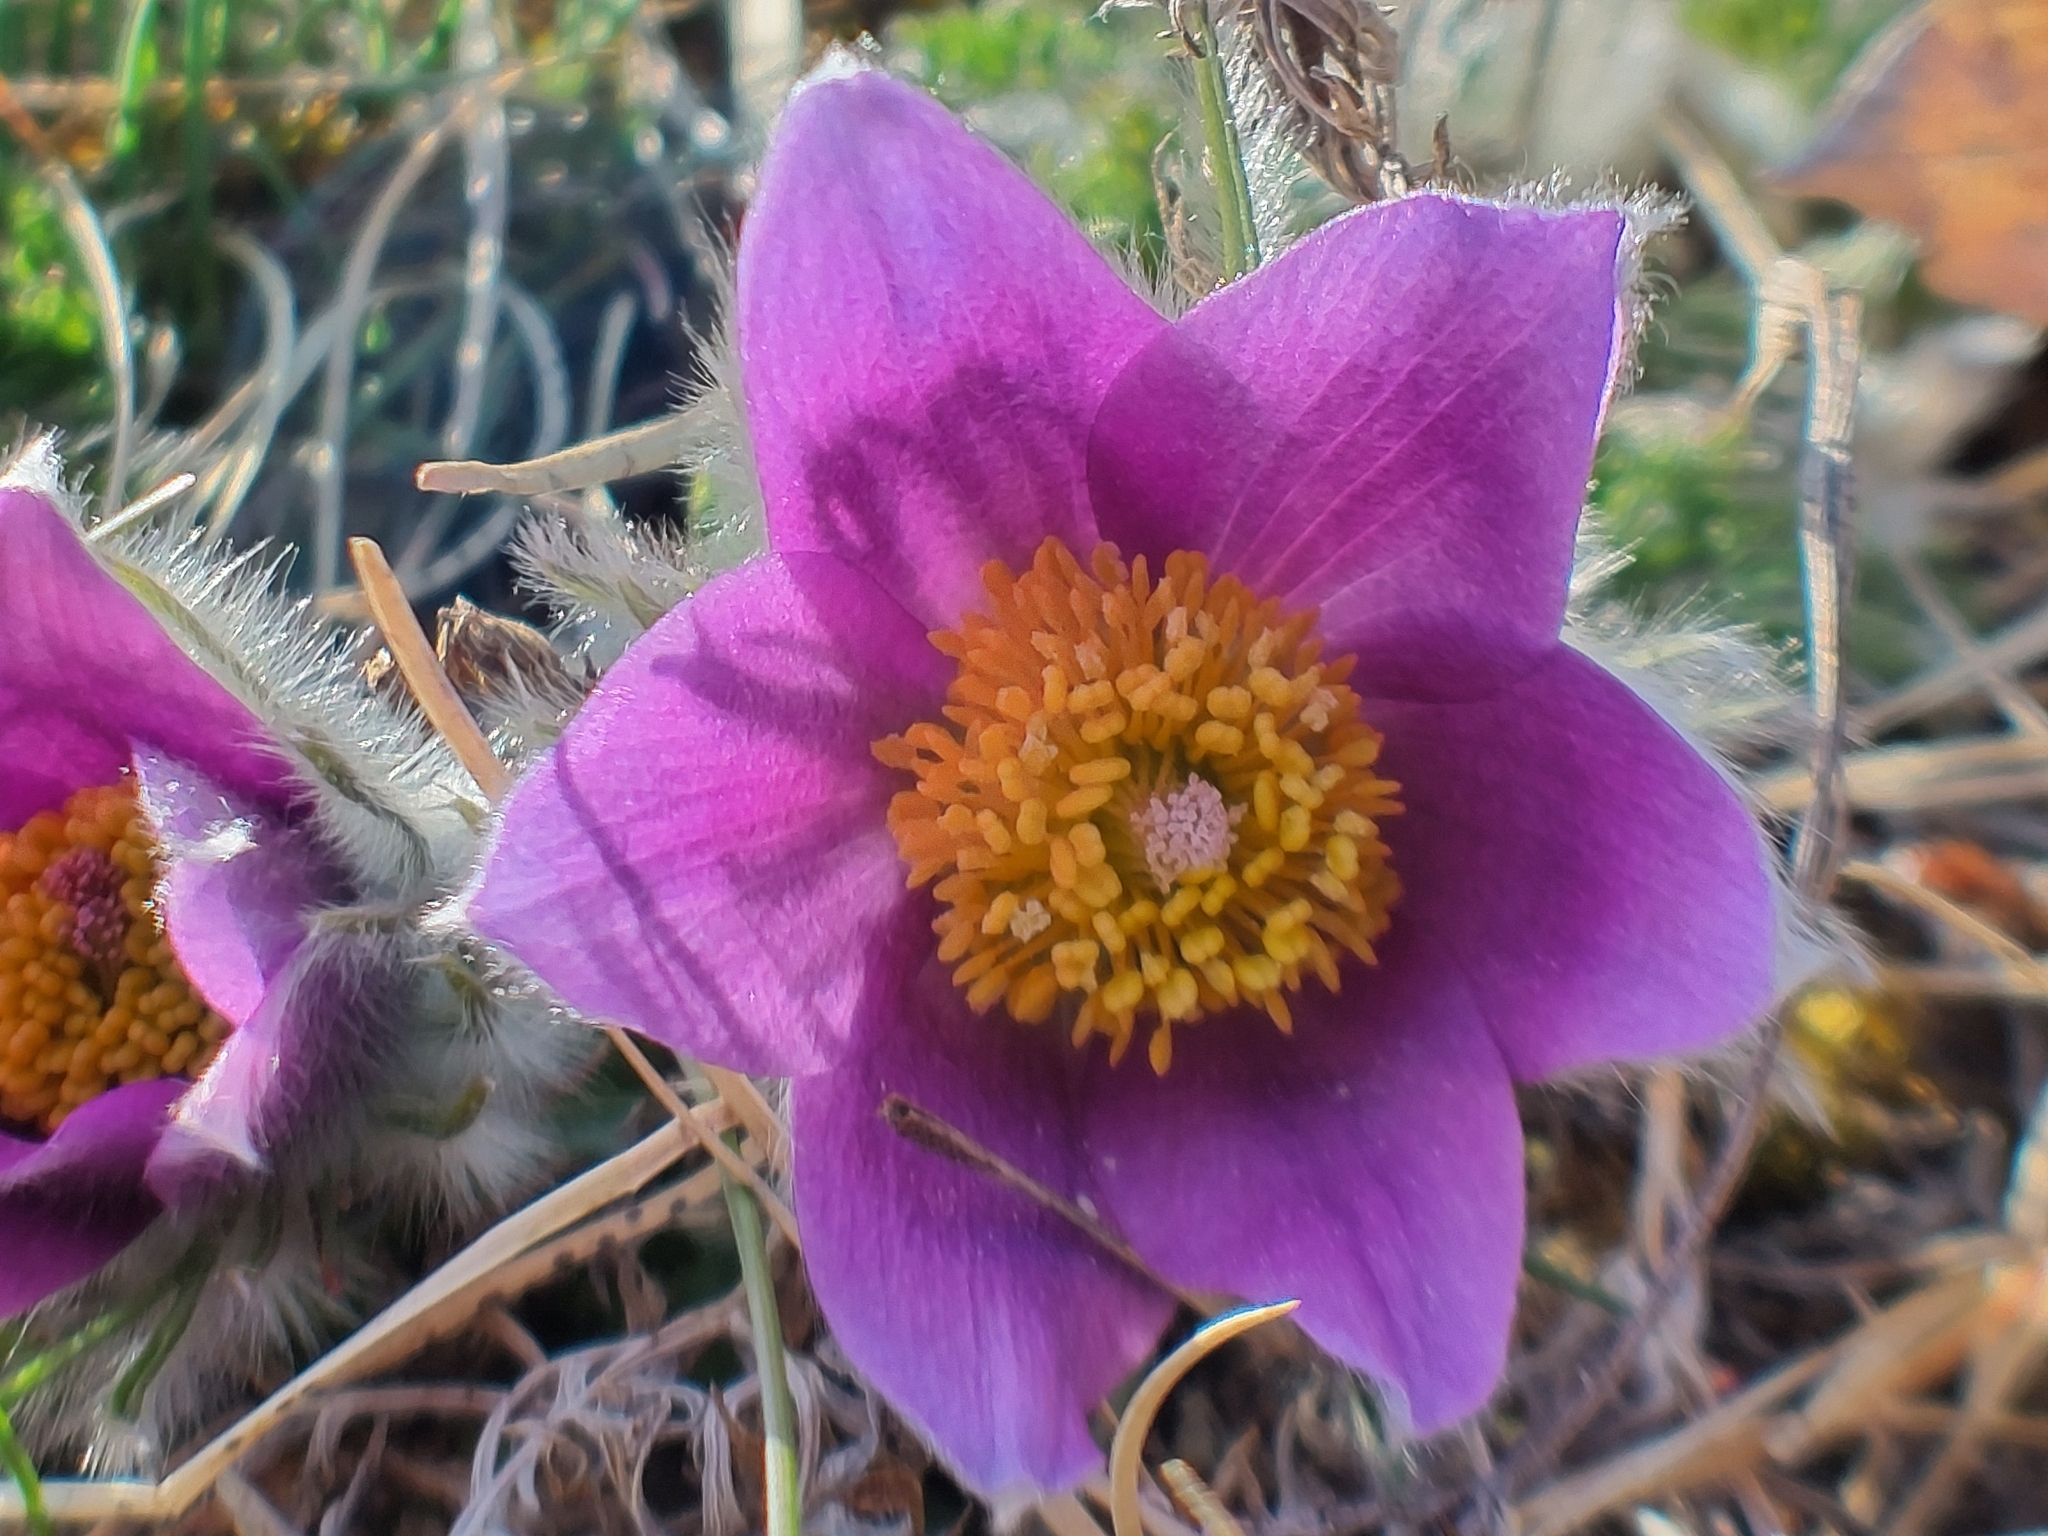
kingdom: Plantae
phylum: Tracheophyta
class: Magnoliopsida
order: Ranunculales
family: Ranunculaceae
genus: Pulsatilla
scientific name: Pulsatilla vulgaris
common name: Pasqueflower
